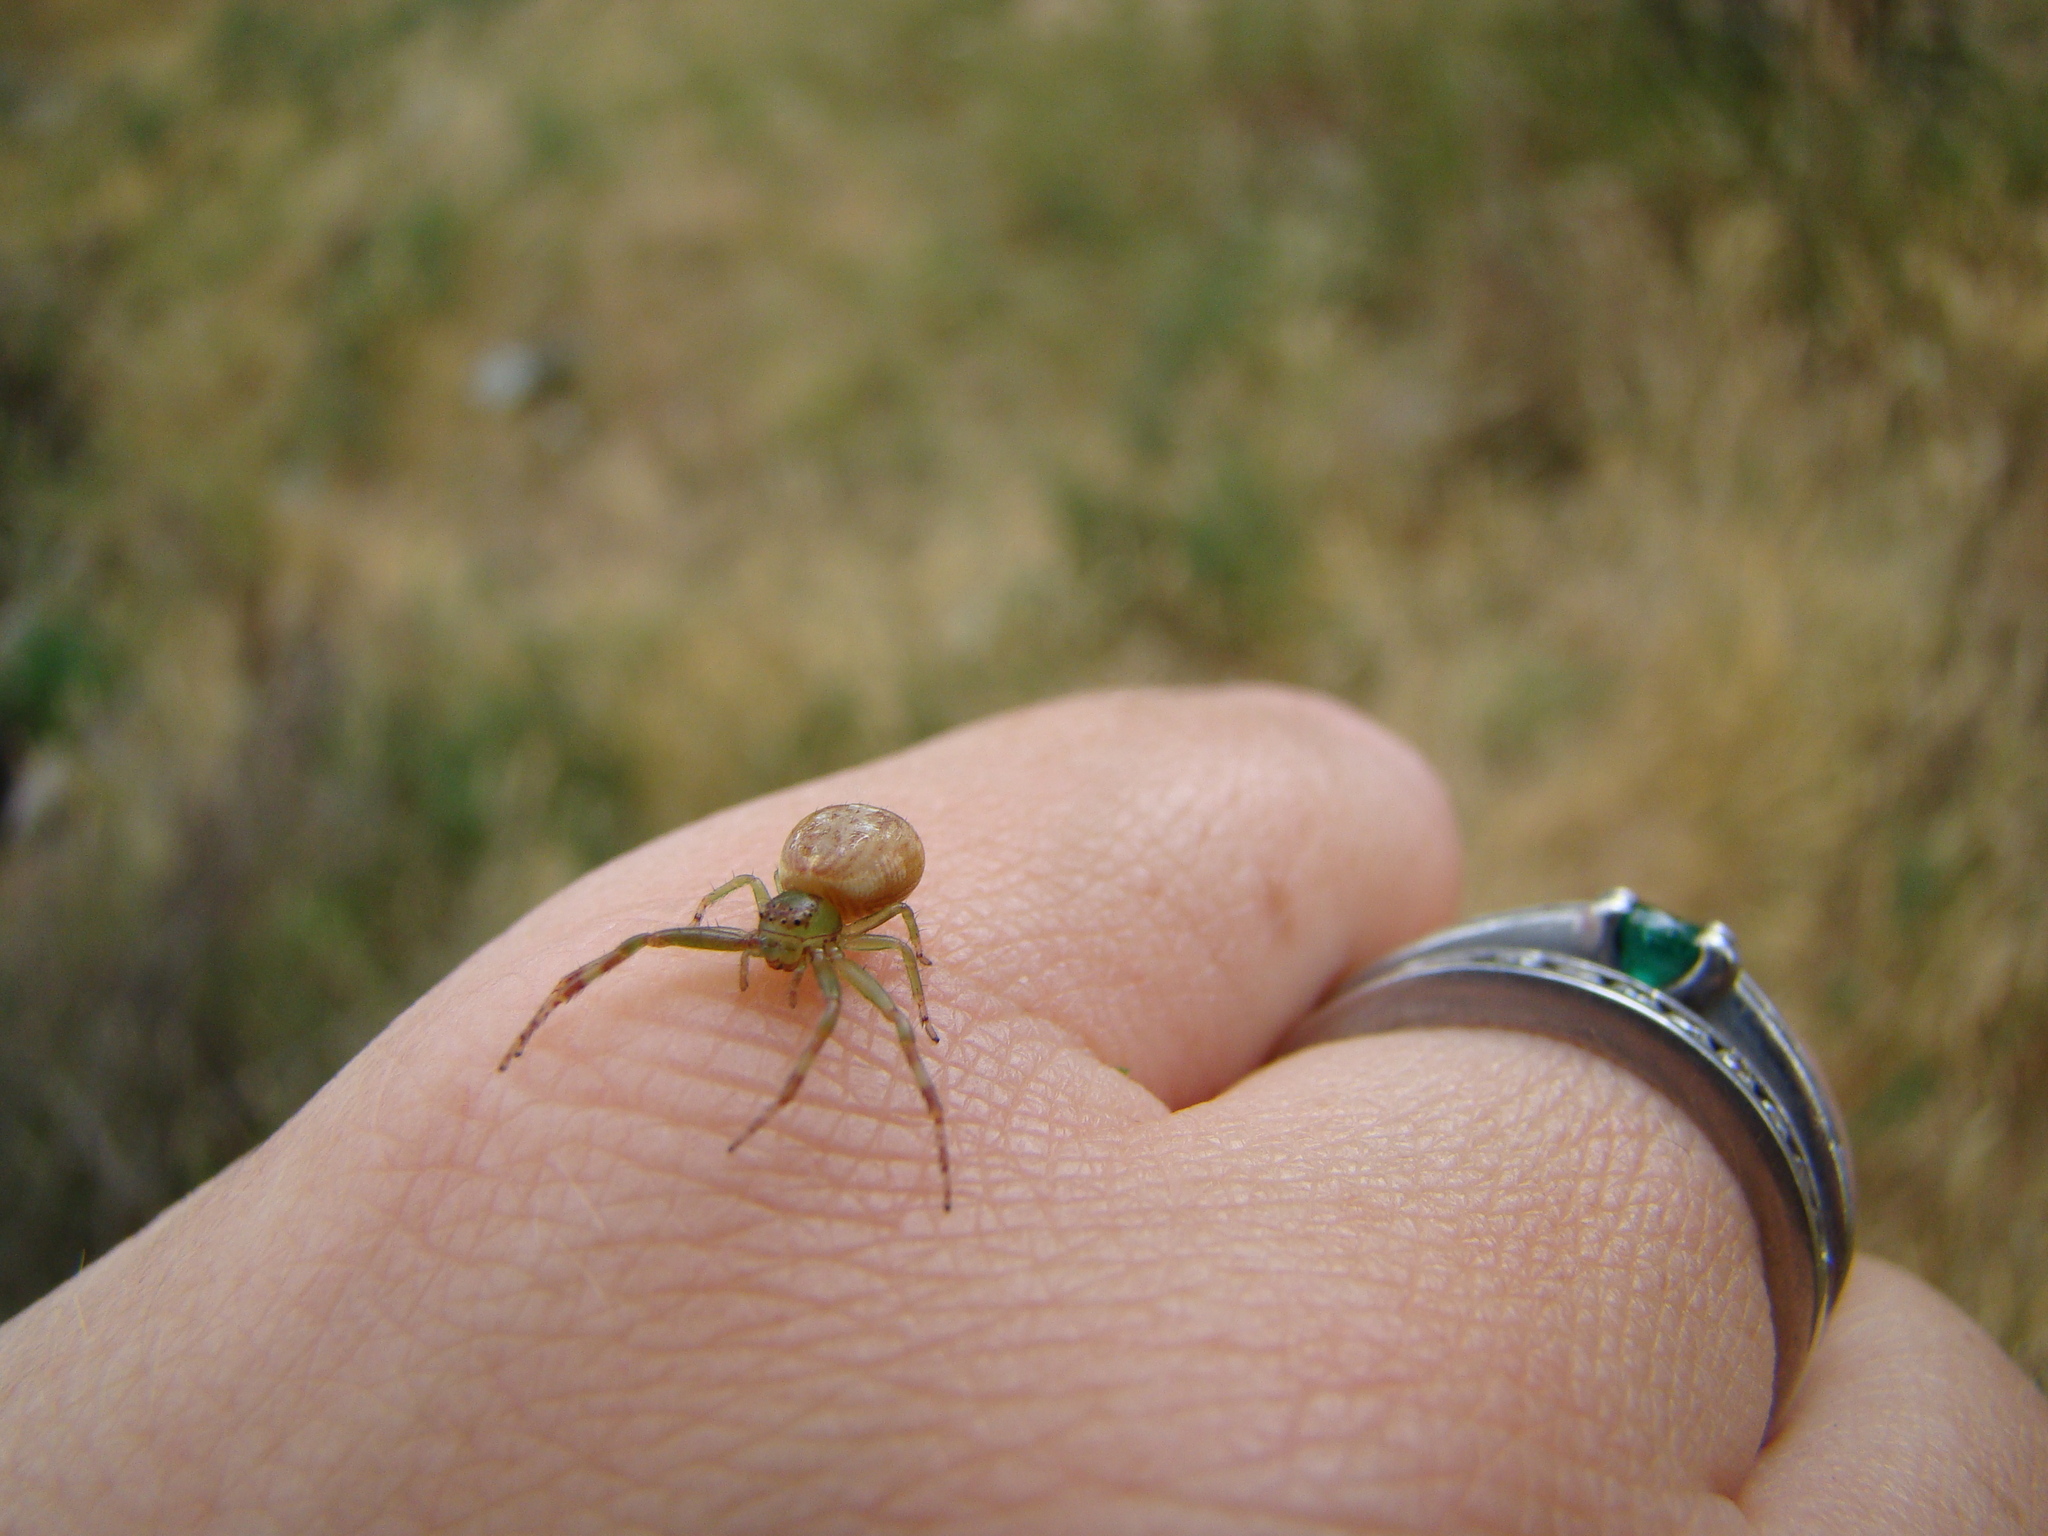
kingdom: Animalia
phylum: Arthropoda
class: Arachnida
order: Araneae
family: Thomisidae
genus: Diaea
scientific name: Diaea ambara
